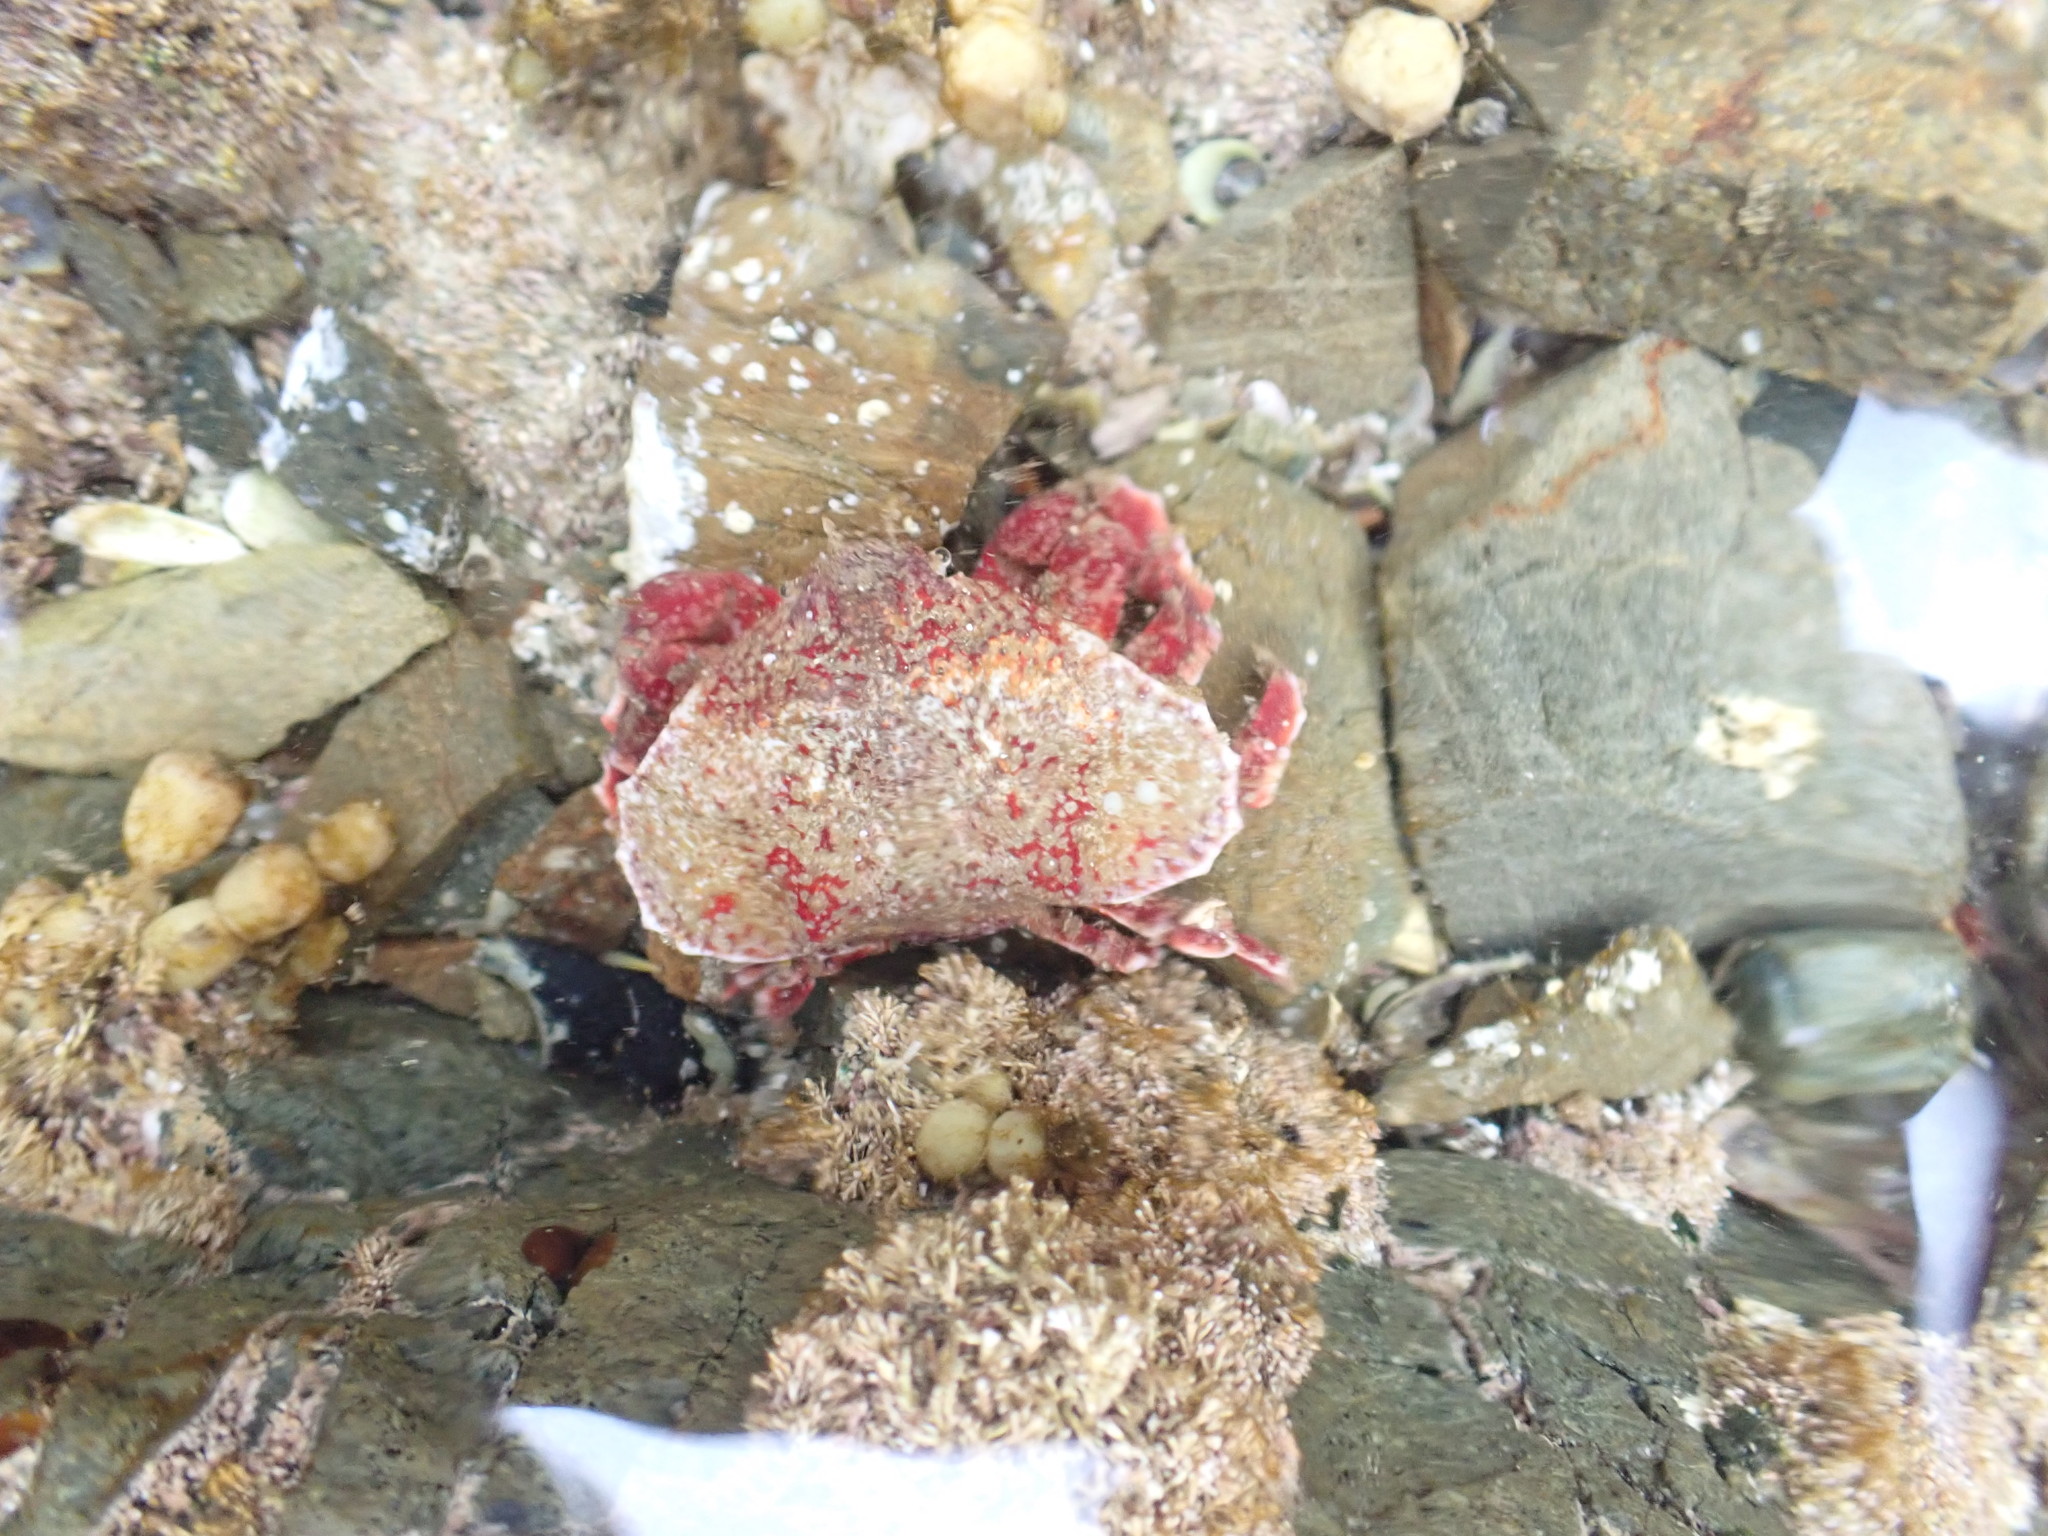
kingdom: Animalia
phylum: Arthropoda
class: Malacostraca
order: Decapoda
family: Majidae
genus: Eurynolambrus
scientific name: Eurynolambrus australis
